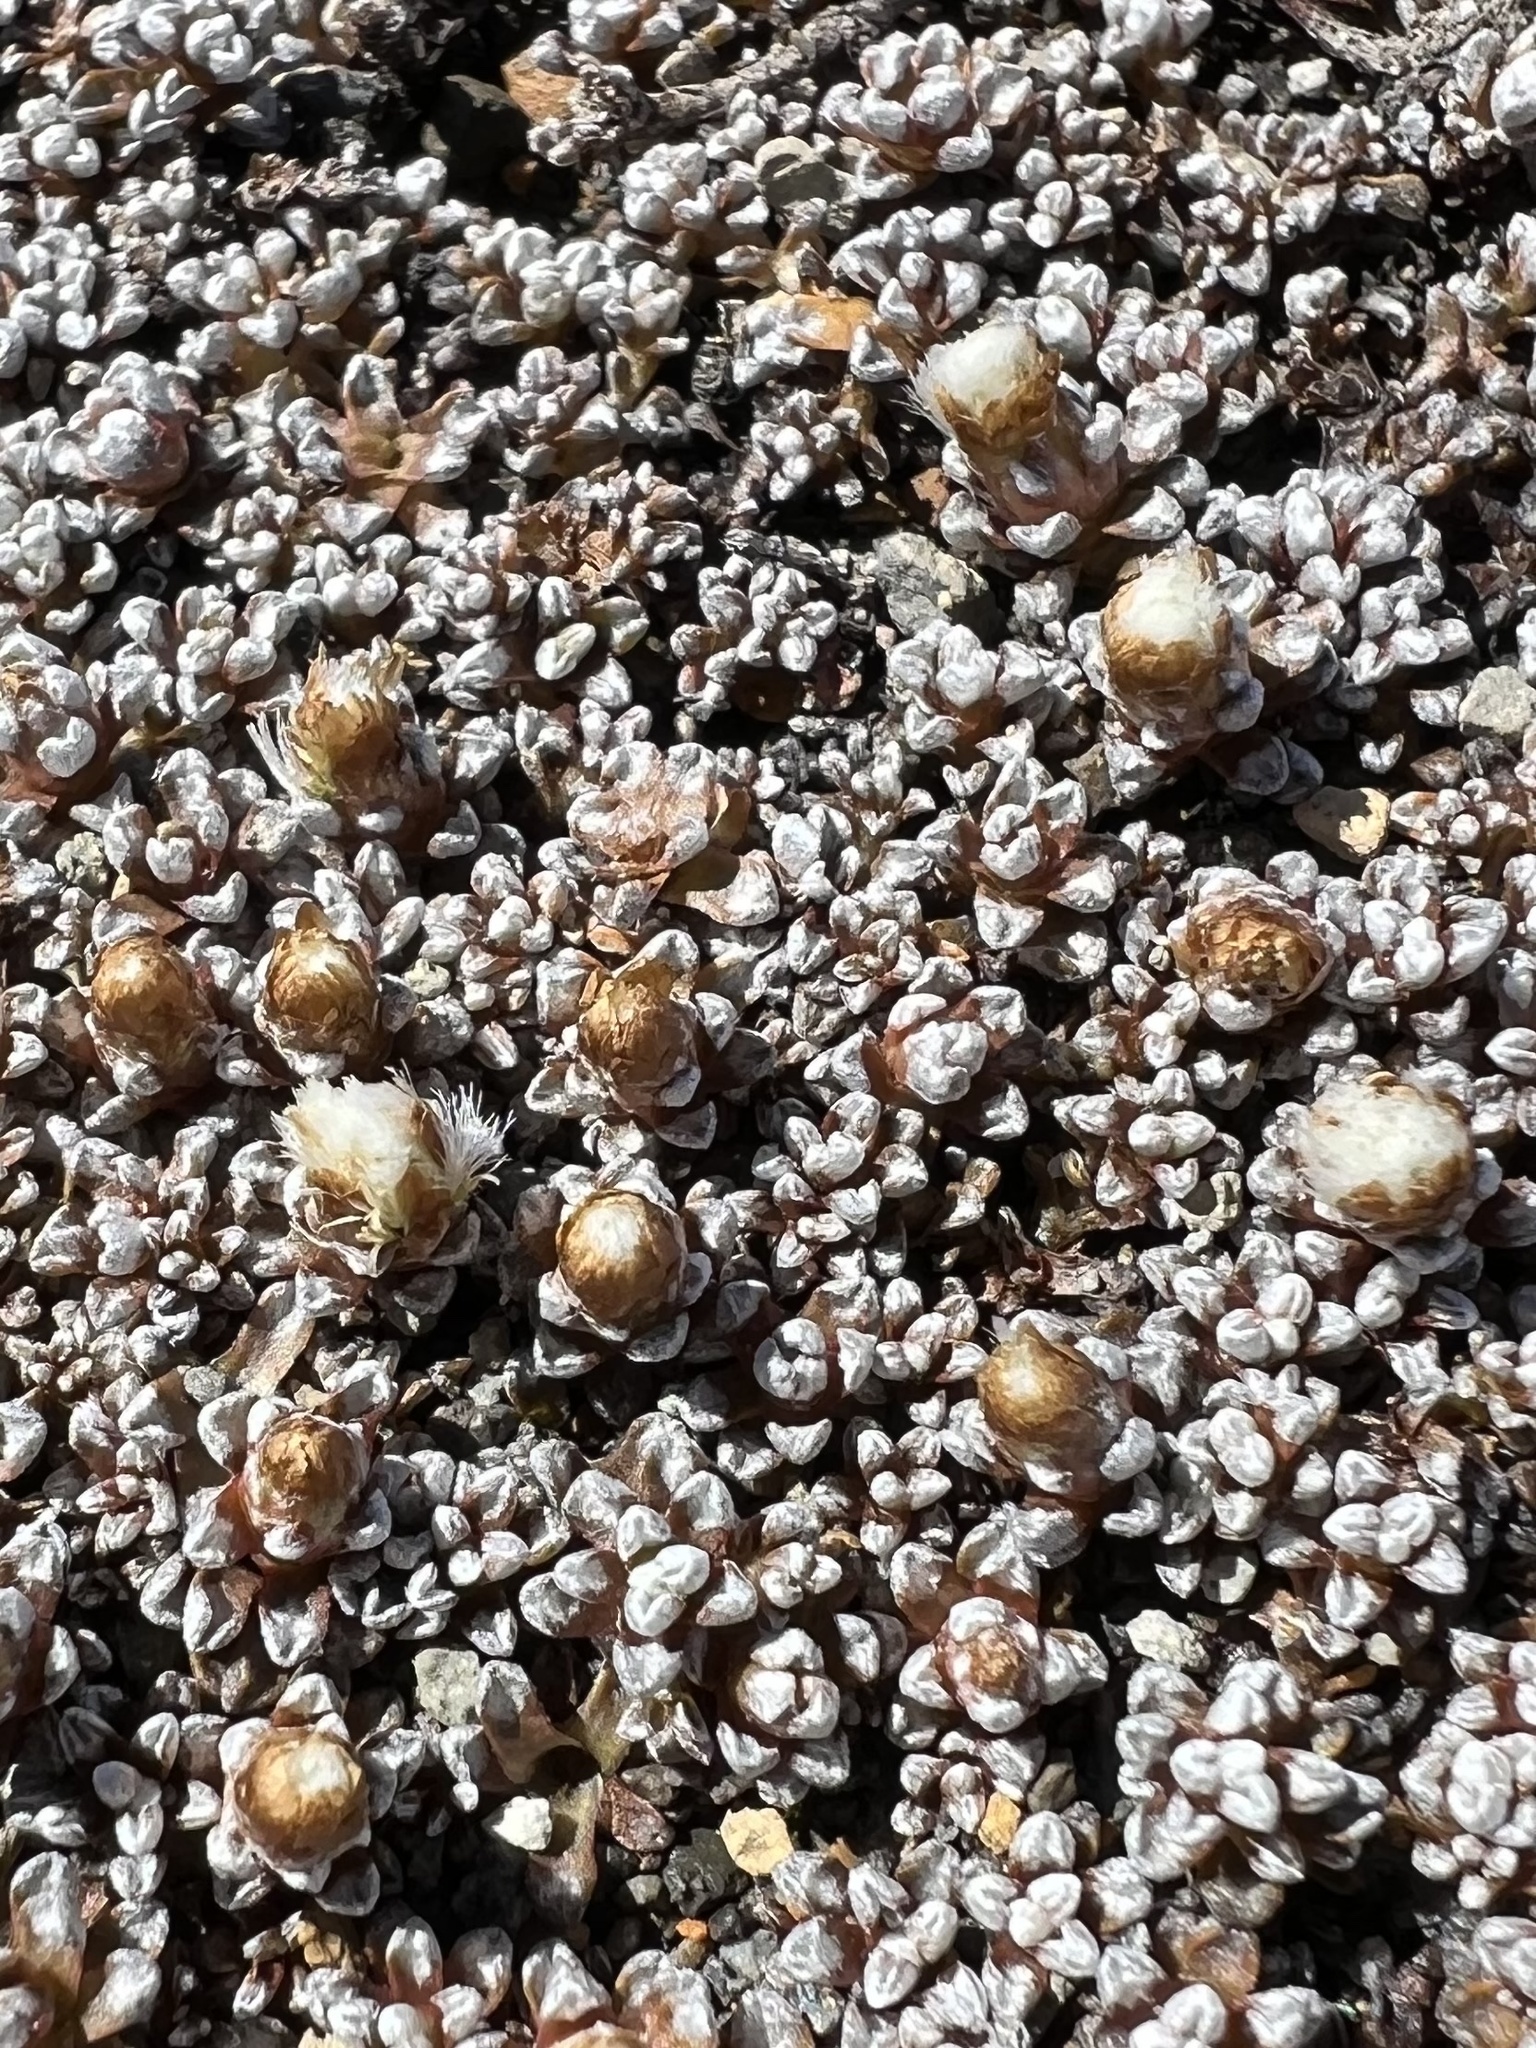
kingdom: Plantae
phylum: Tracheophyta
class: Magnoliopsida
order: Asterales
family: Asteraceae
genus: Raoulia
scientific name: Raoulia albosericea
